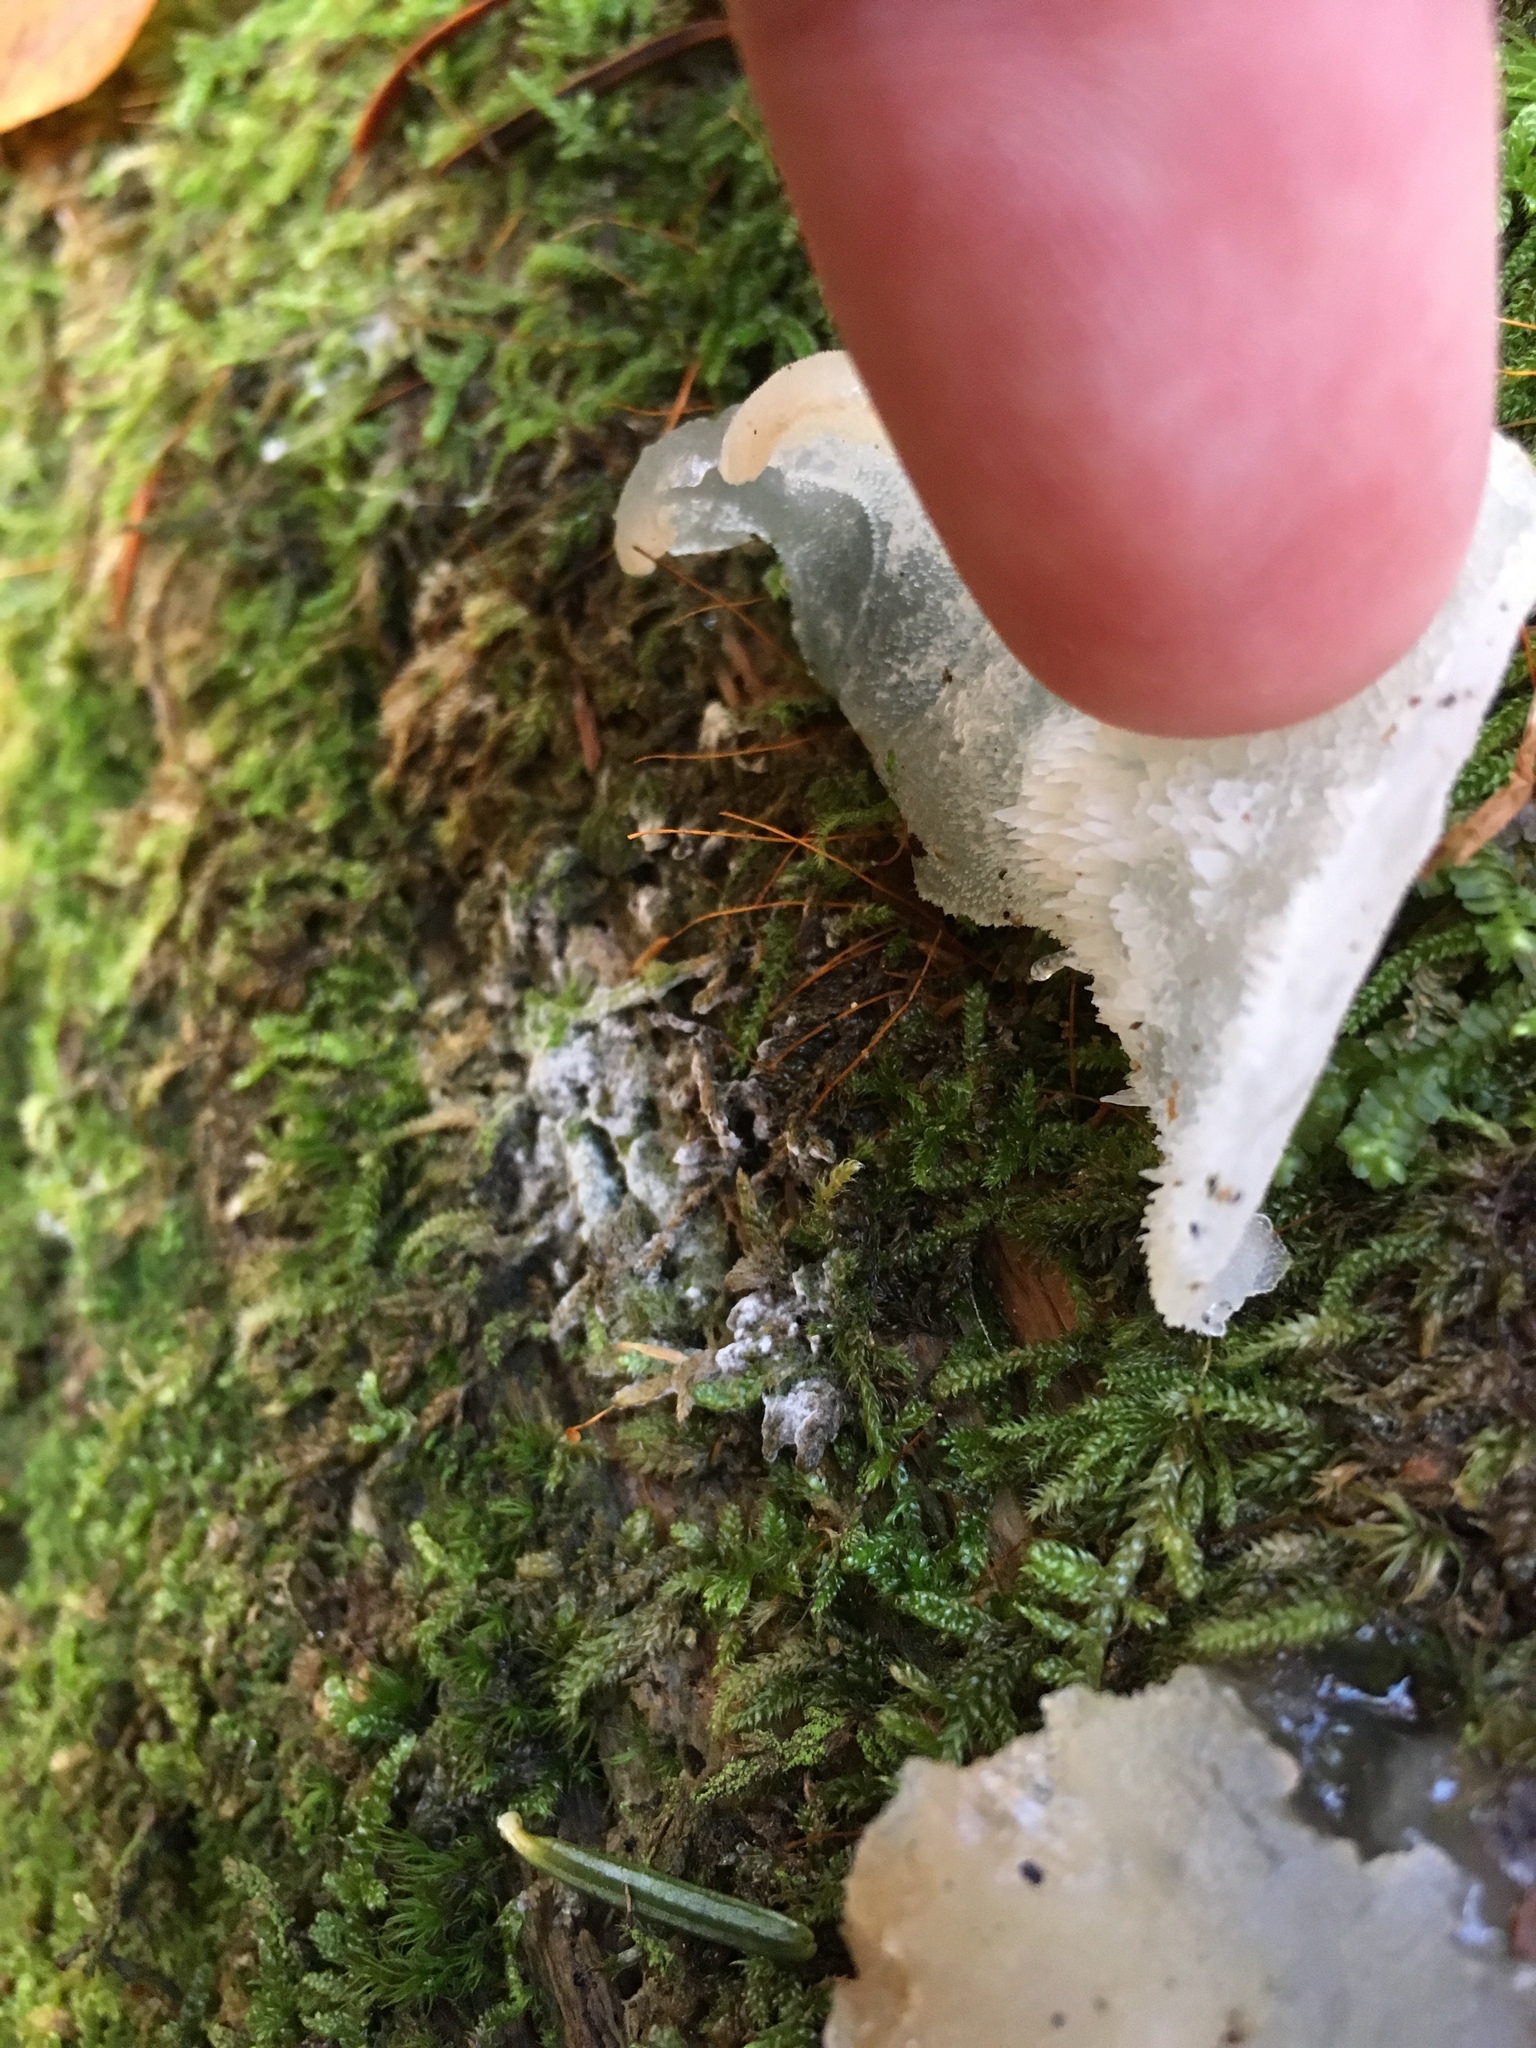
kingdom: Fungi
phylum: Basidiomycota
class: Agaricomycetes
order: Auriculariales
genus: Pseudohydnum
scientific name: Pseudohydnum gelatinosum
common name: Jelly tongue
